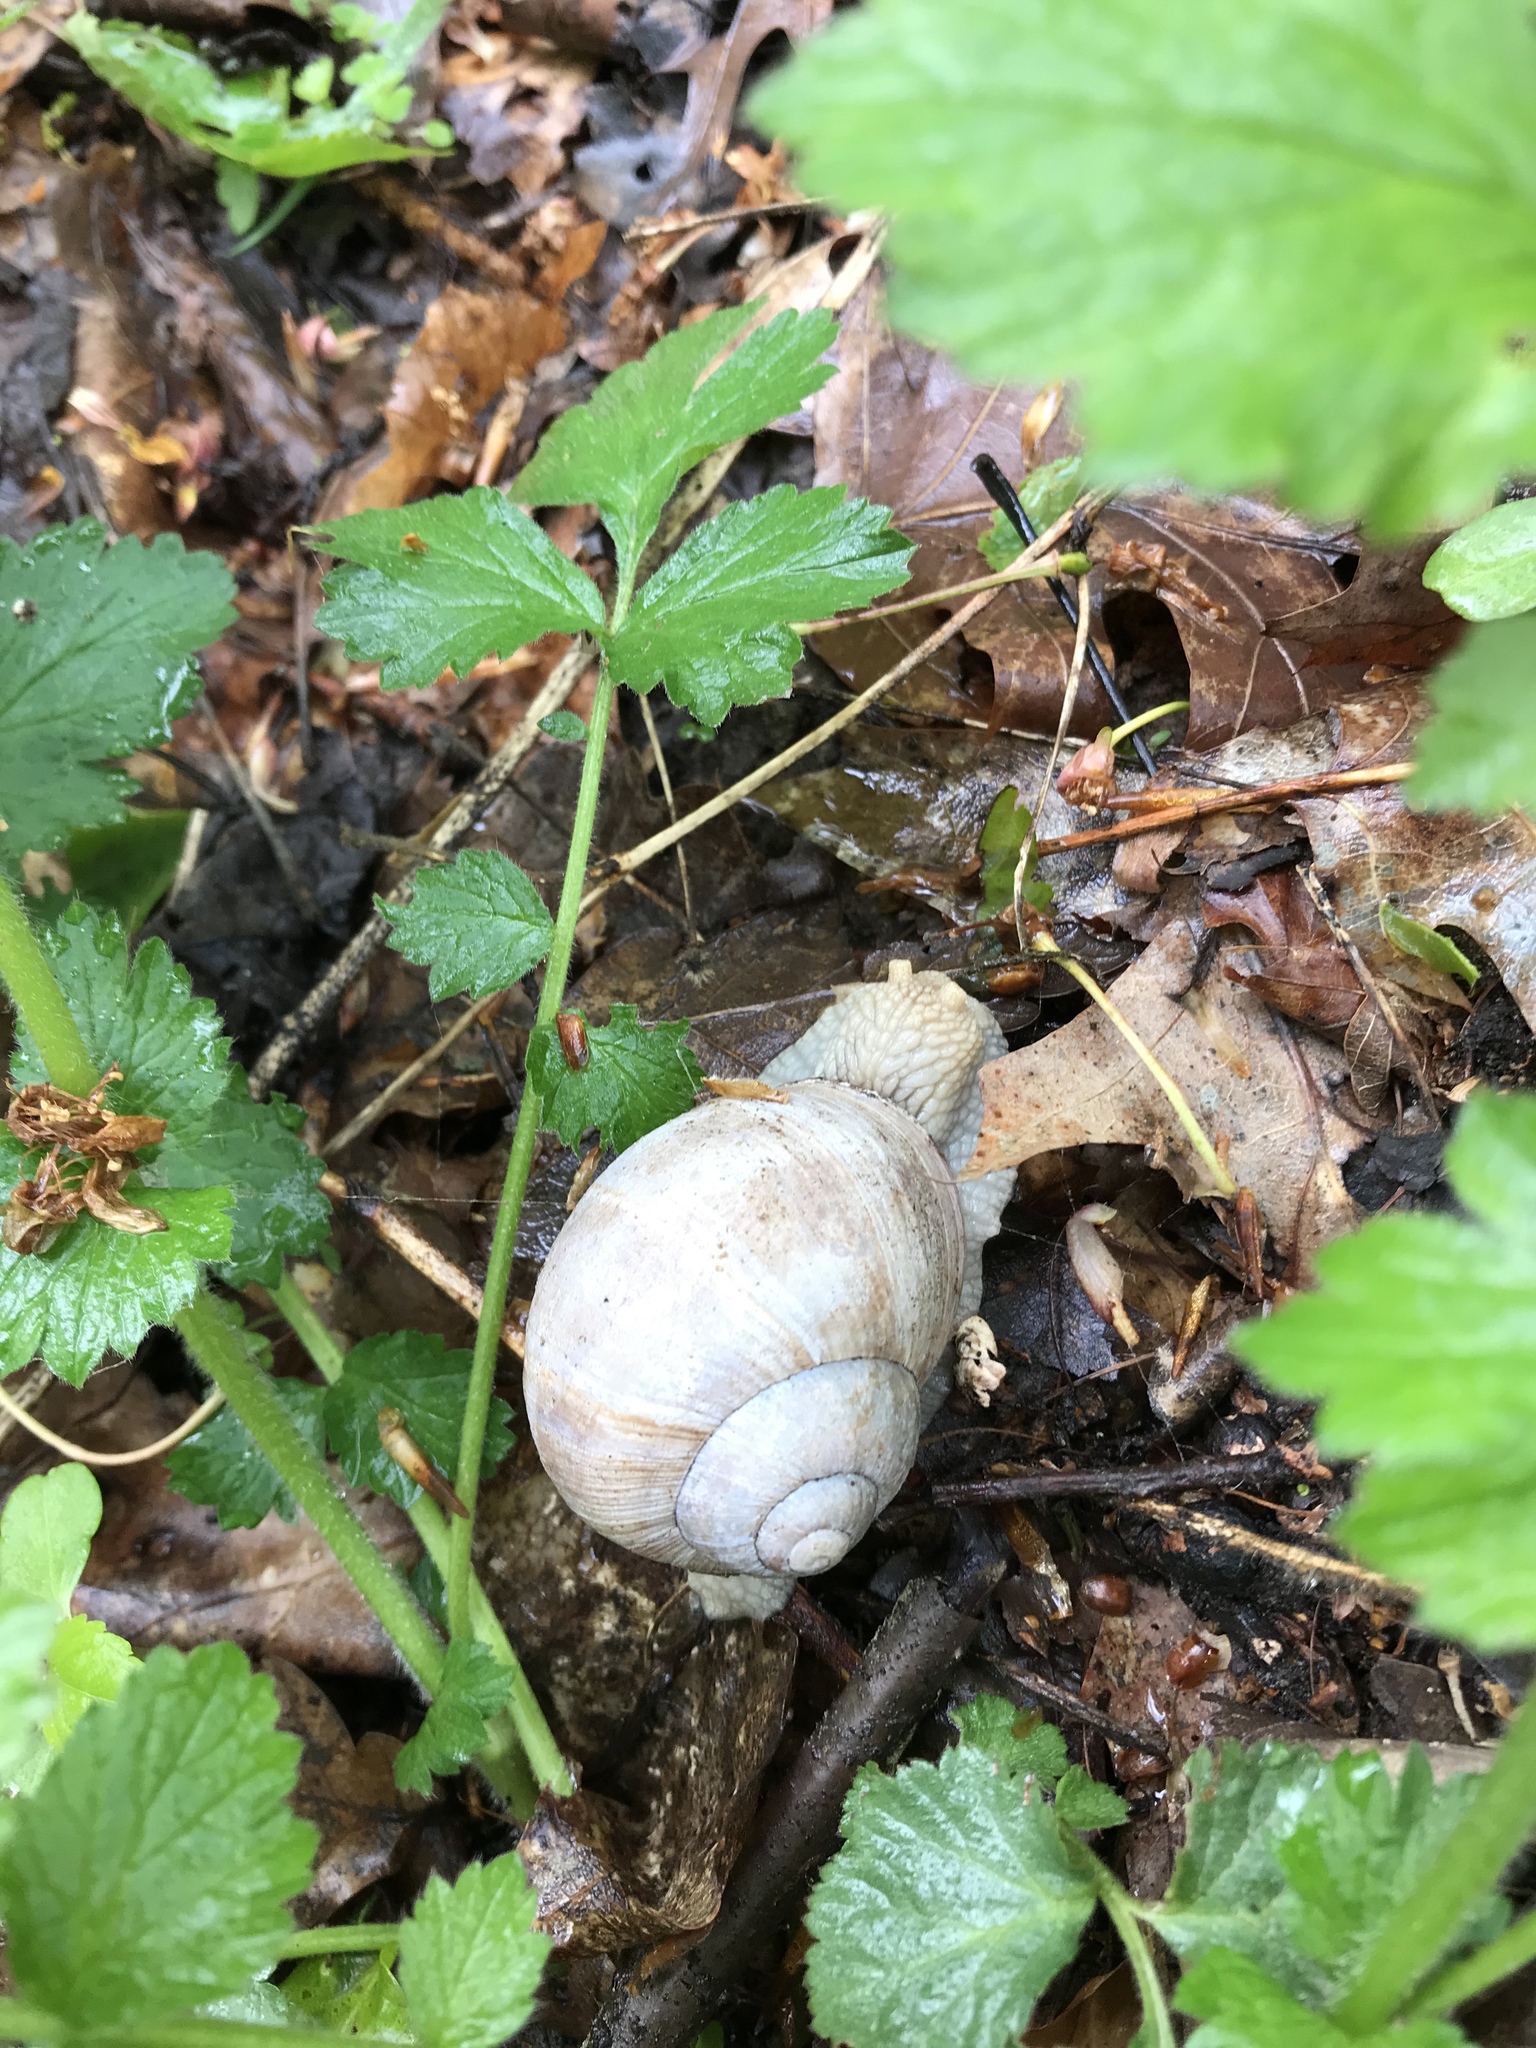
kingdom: Animalia
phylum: Mollusca
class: Gastropoda
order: Stylommatophora
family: Helicidae
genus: Helix
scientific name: Helix pomatia
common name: Roman snail
